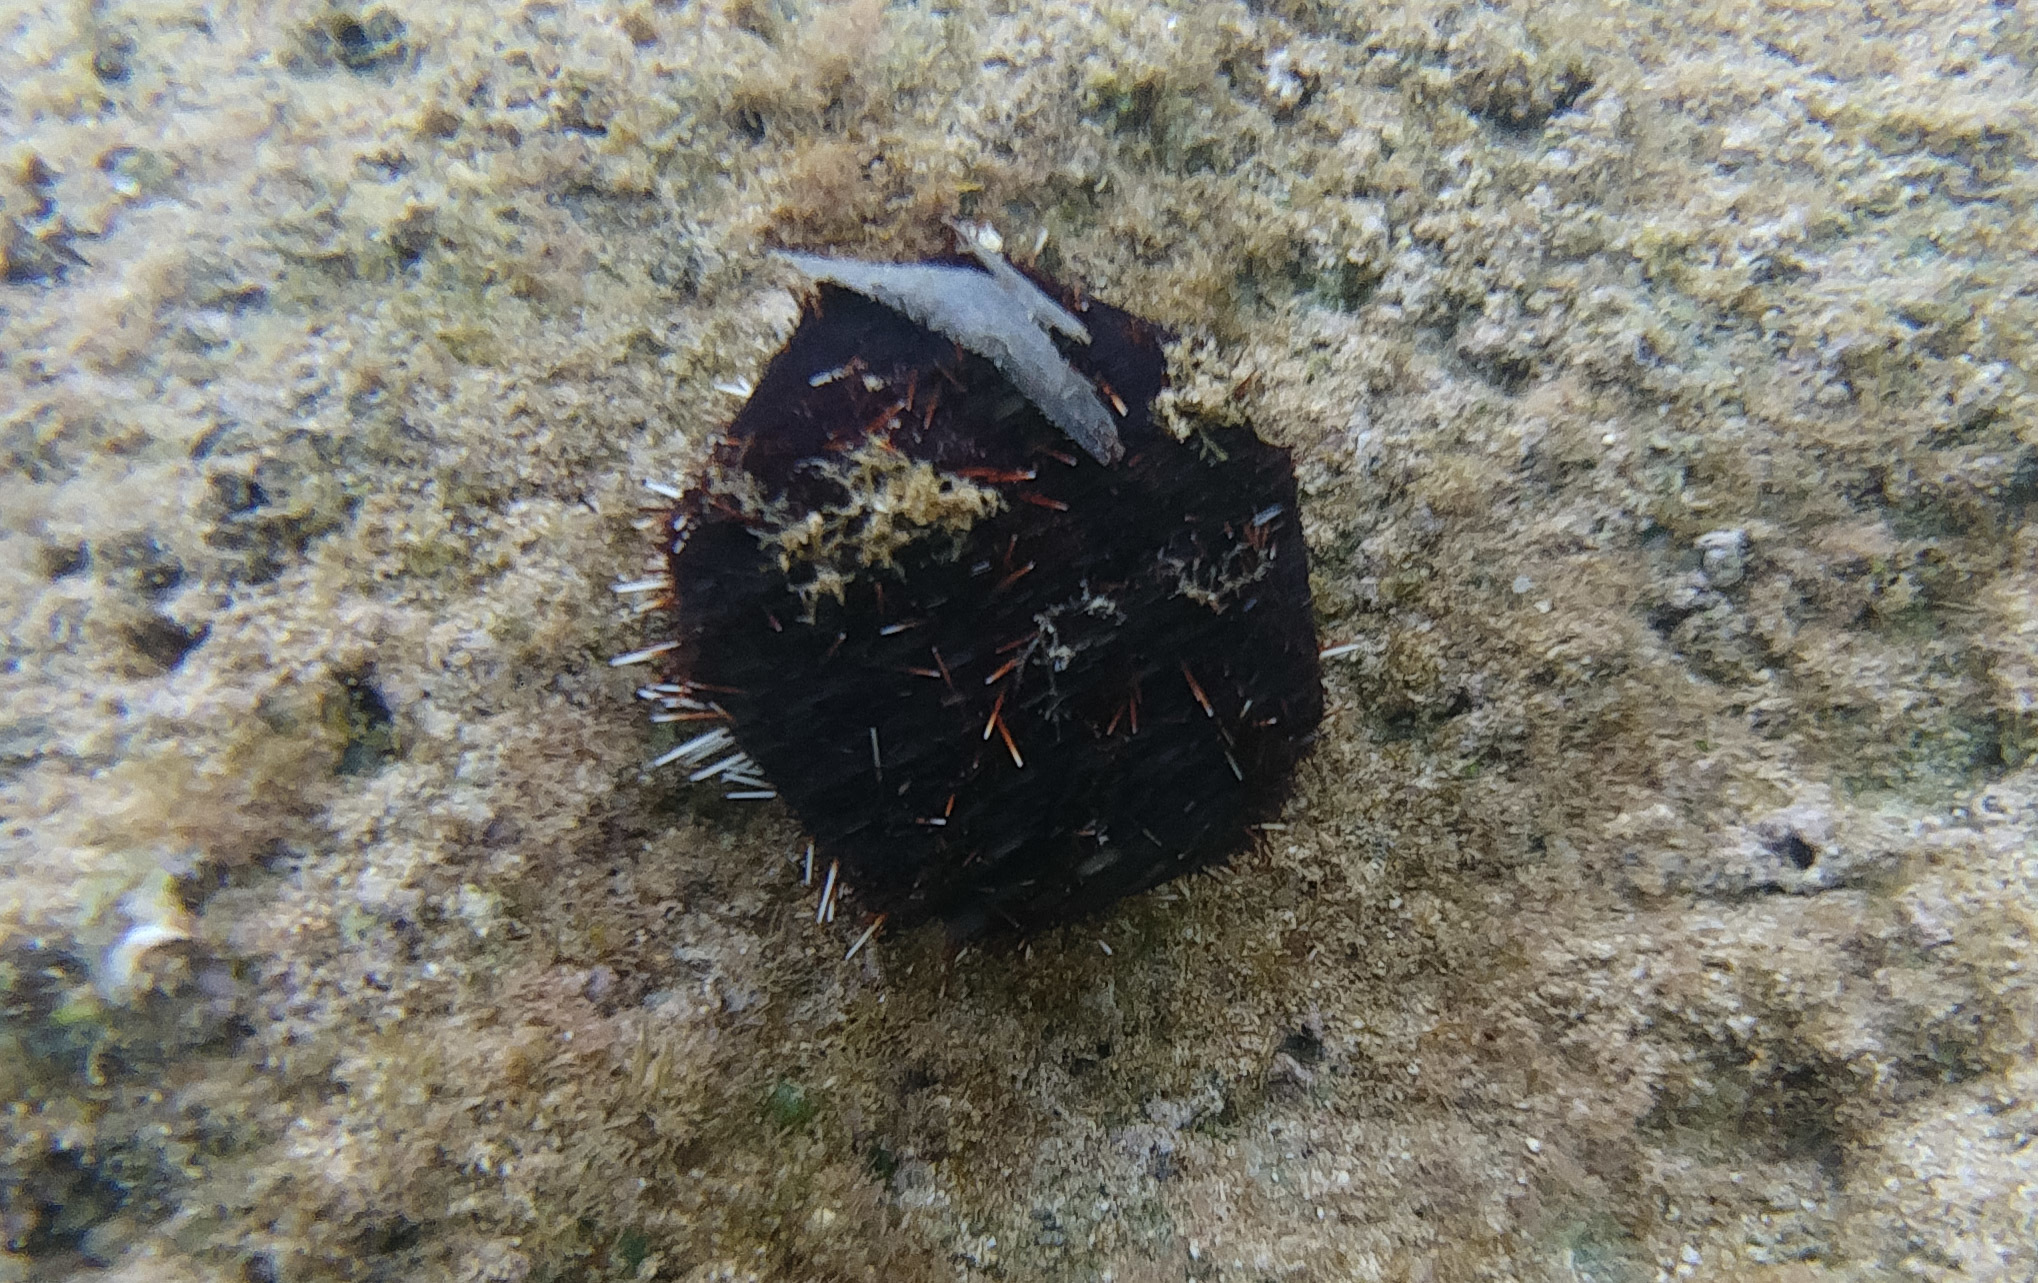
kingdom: Animalia
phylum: Echinodermata
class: Echinoidea
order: Camarodonta
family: Toxopneustidae
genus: Tripneustes
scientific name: Tripneustes gratilla
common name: Bischofsmützenseeigel
